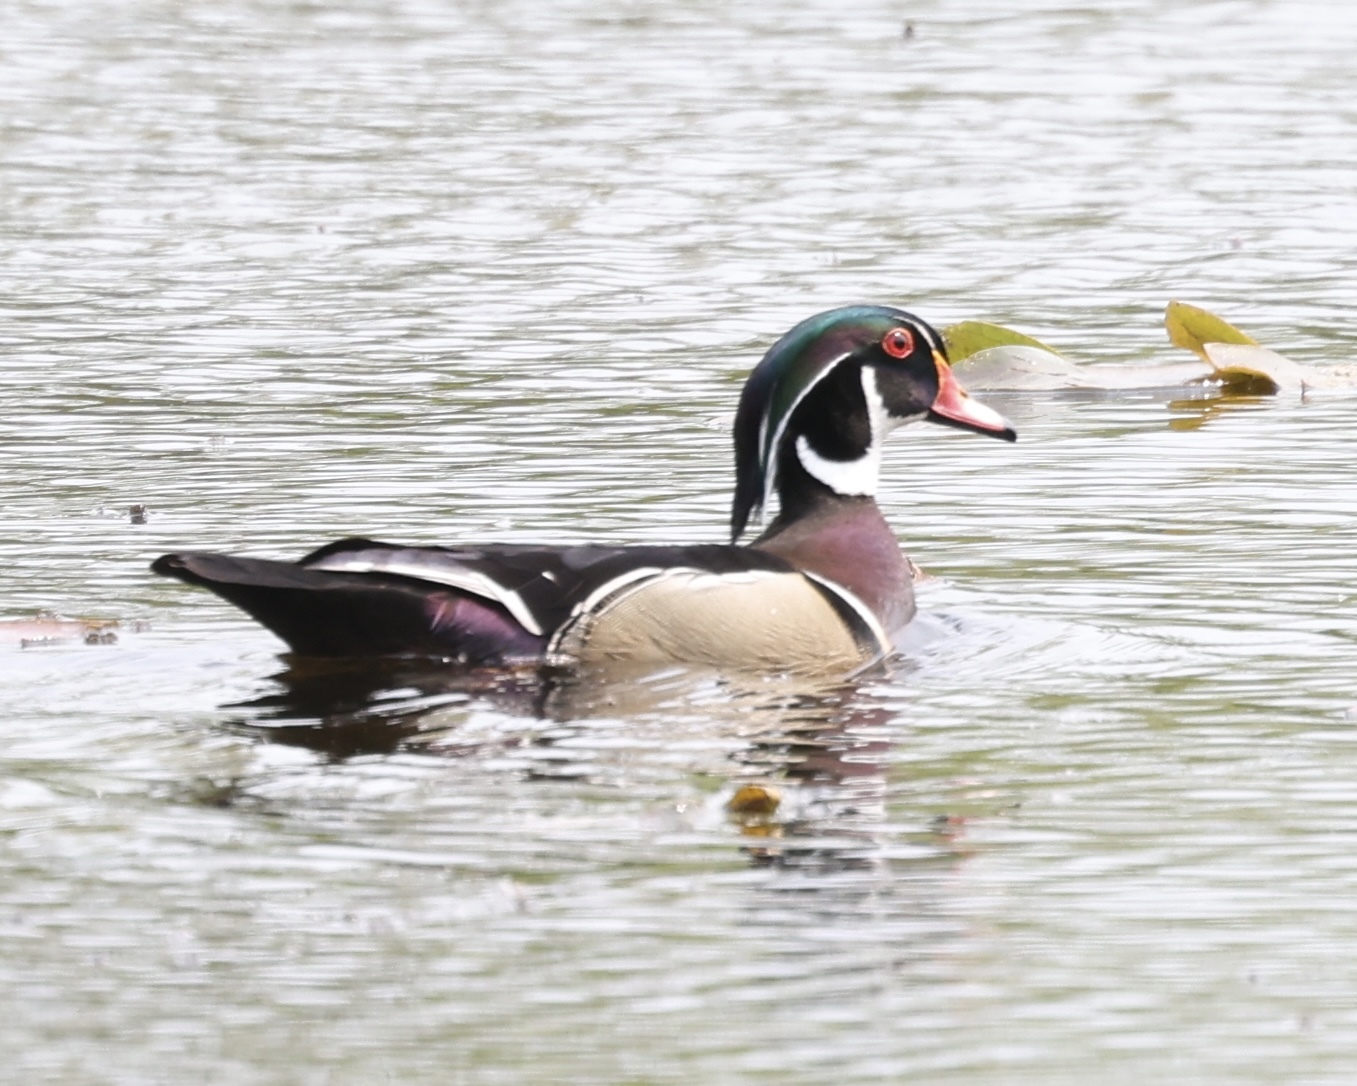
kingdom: Animalia
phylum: Chordata
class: Aves
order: Anseriformes
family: Anatidae
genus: Aix
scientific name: Aix sponsa
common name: Wood duck
